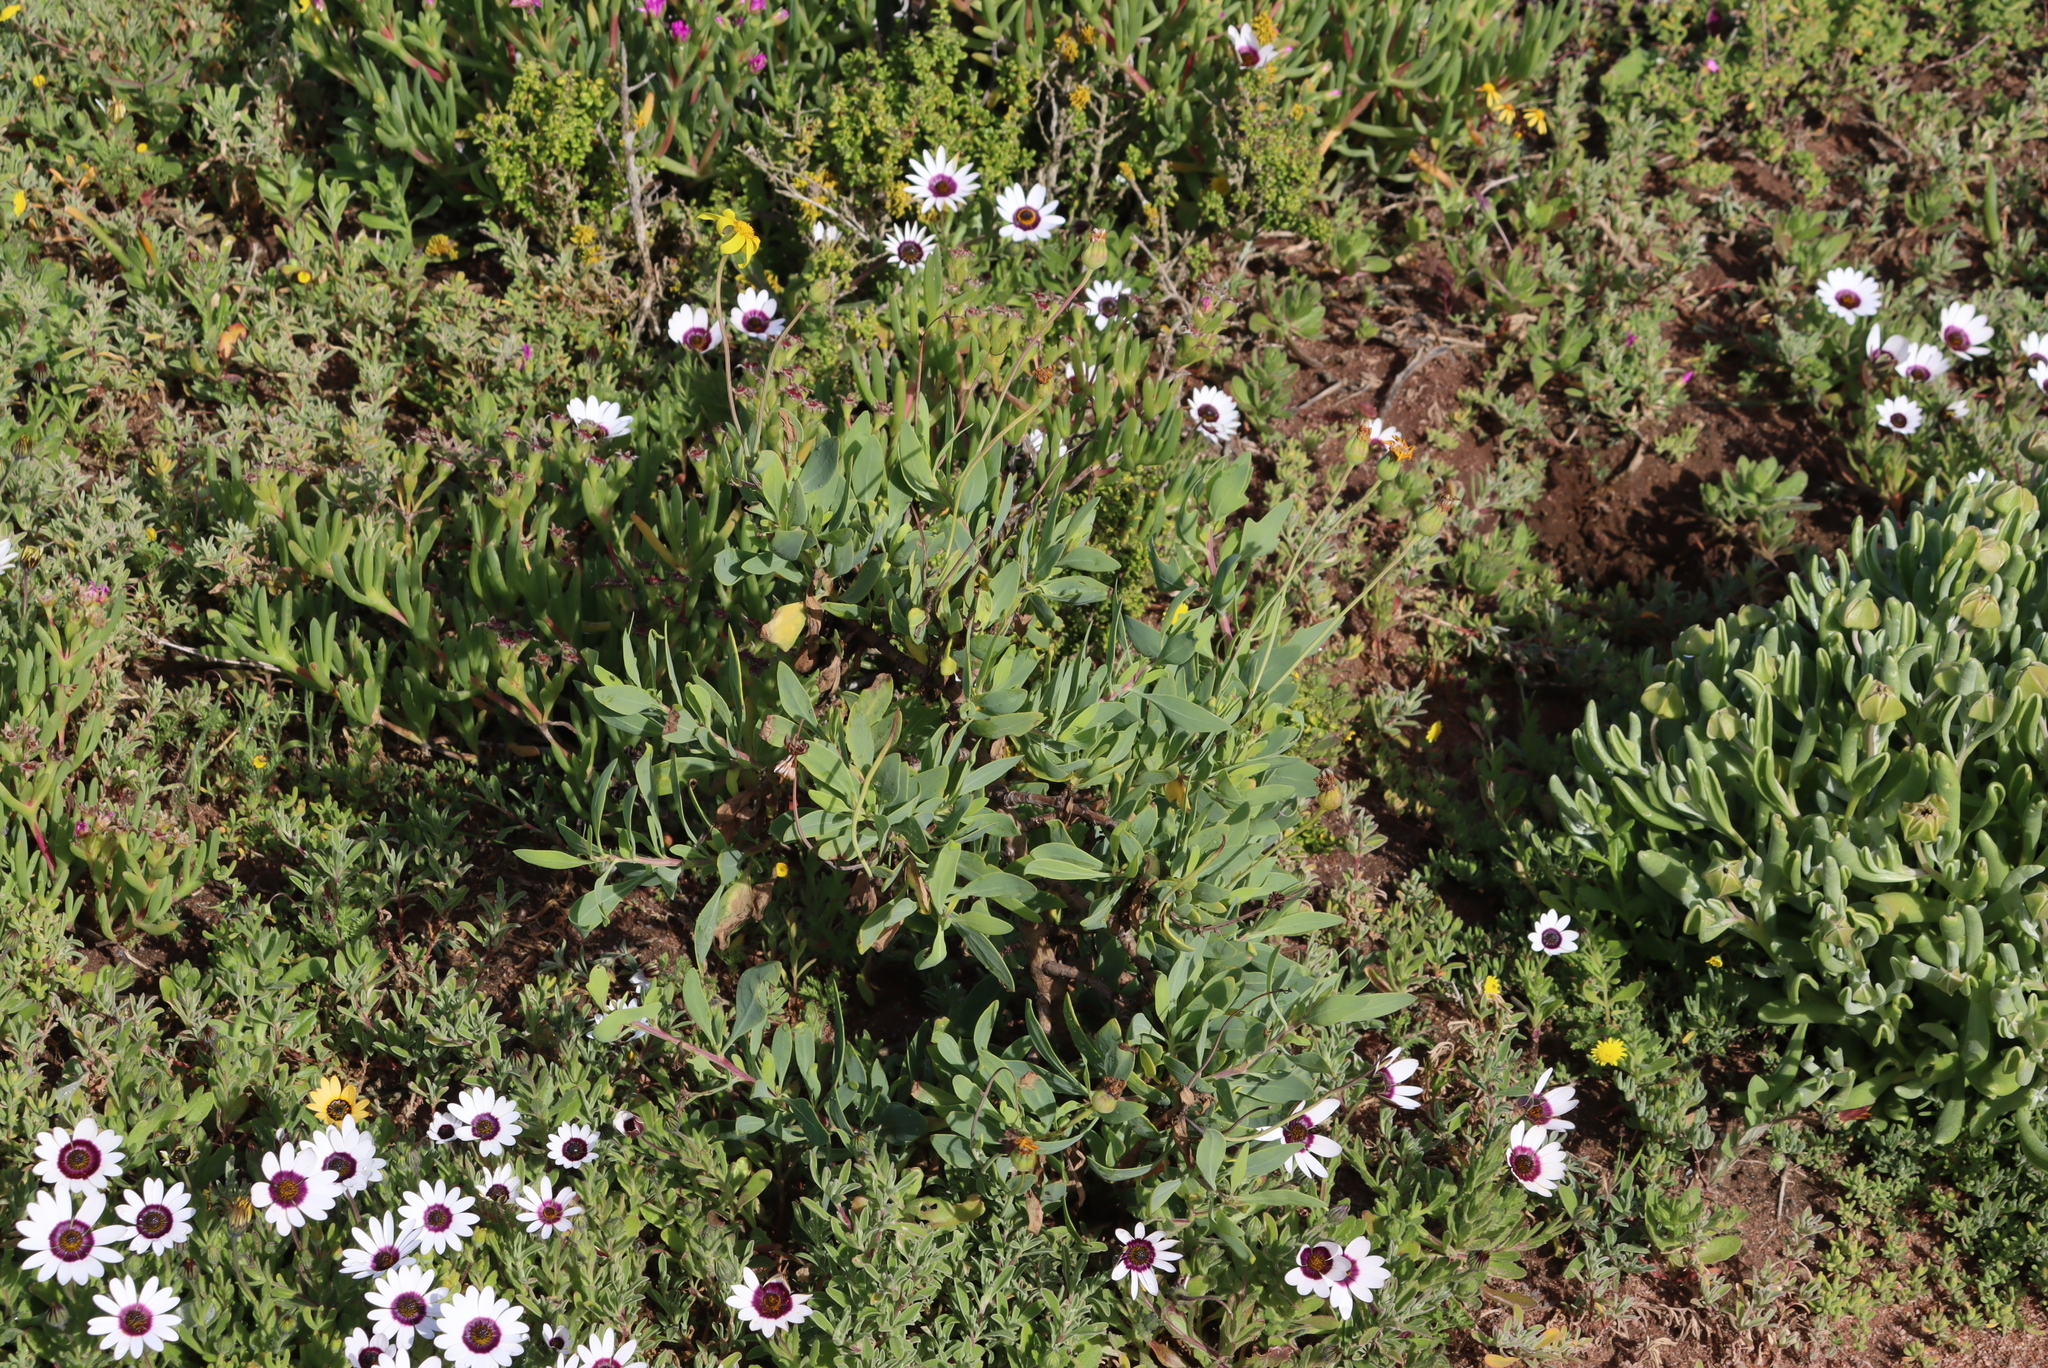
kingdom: Plantae
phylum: Tracheophyta
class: Magnoliopsida
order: Asterales
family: Asteraceae
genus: Othonna
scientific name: Othonna coronopifolia
